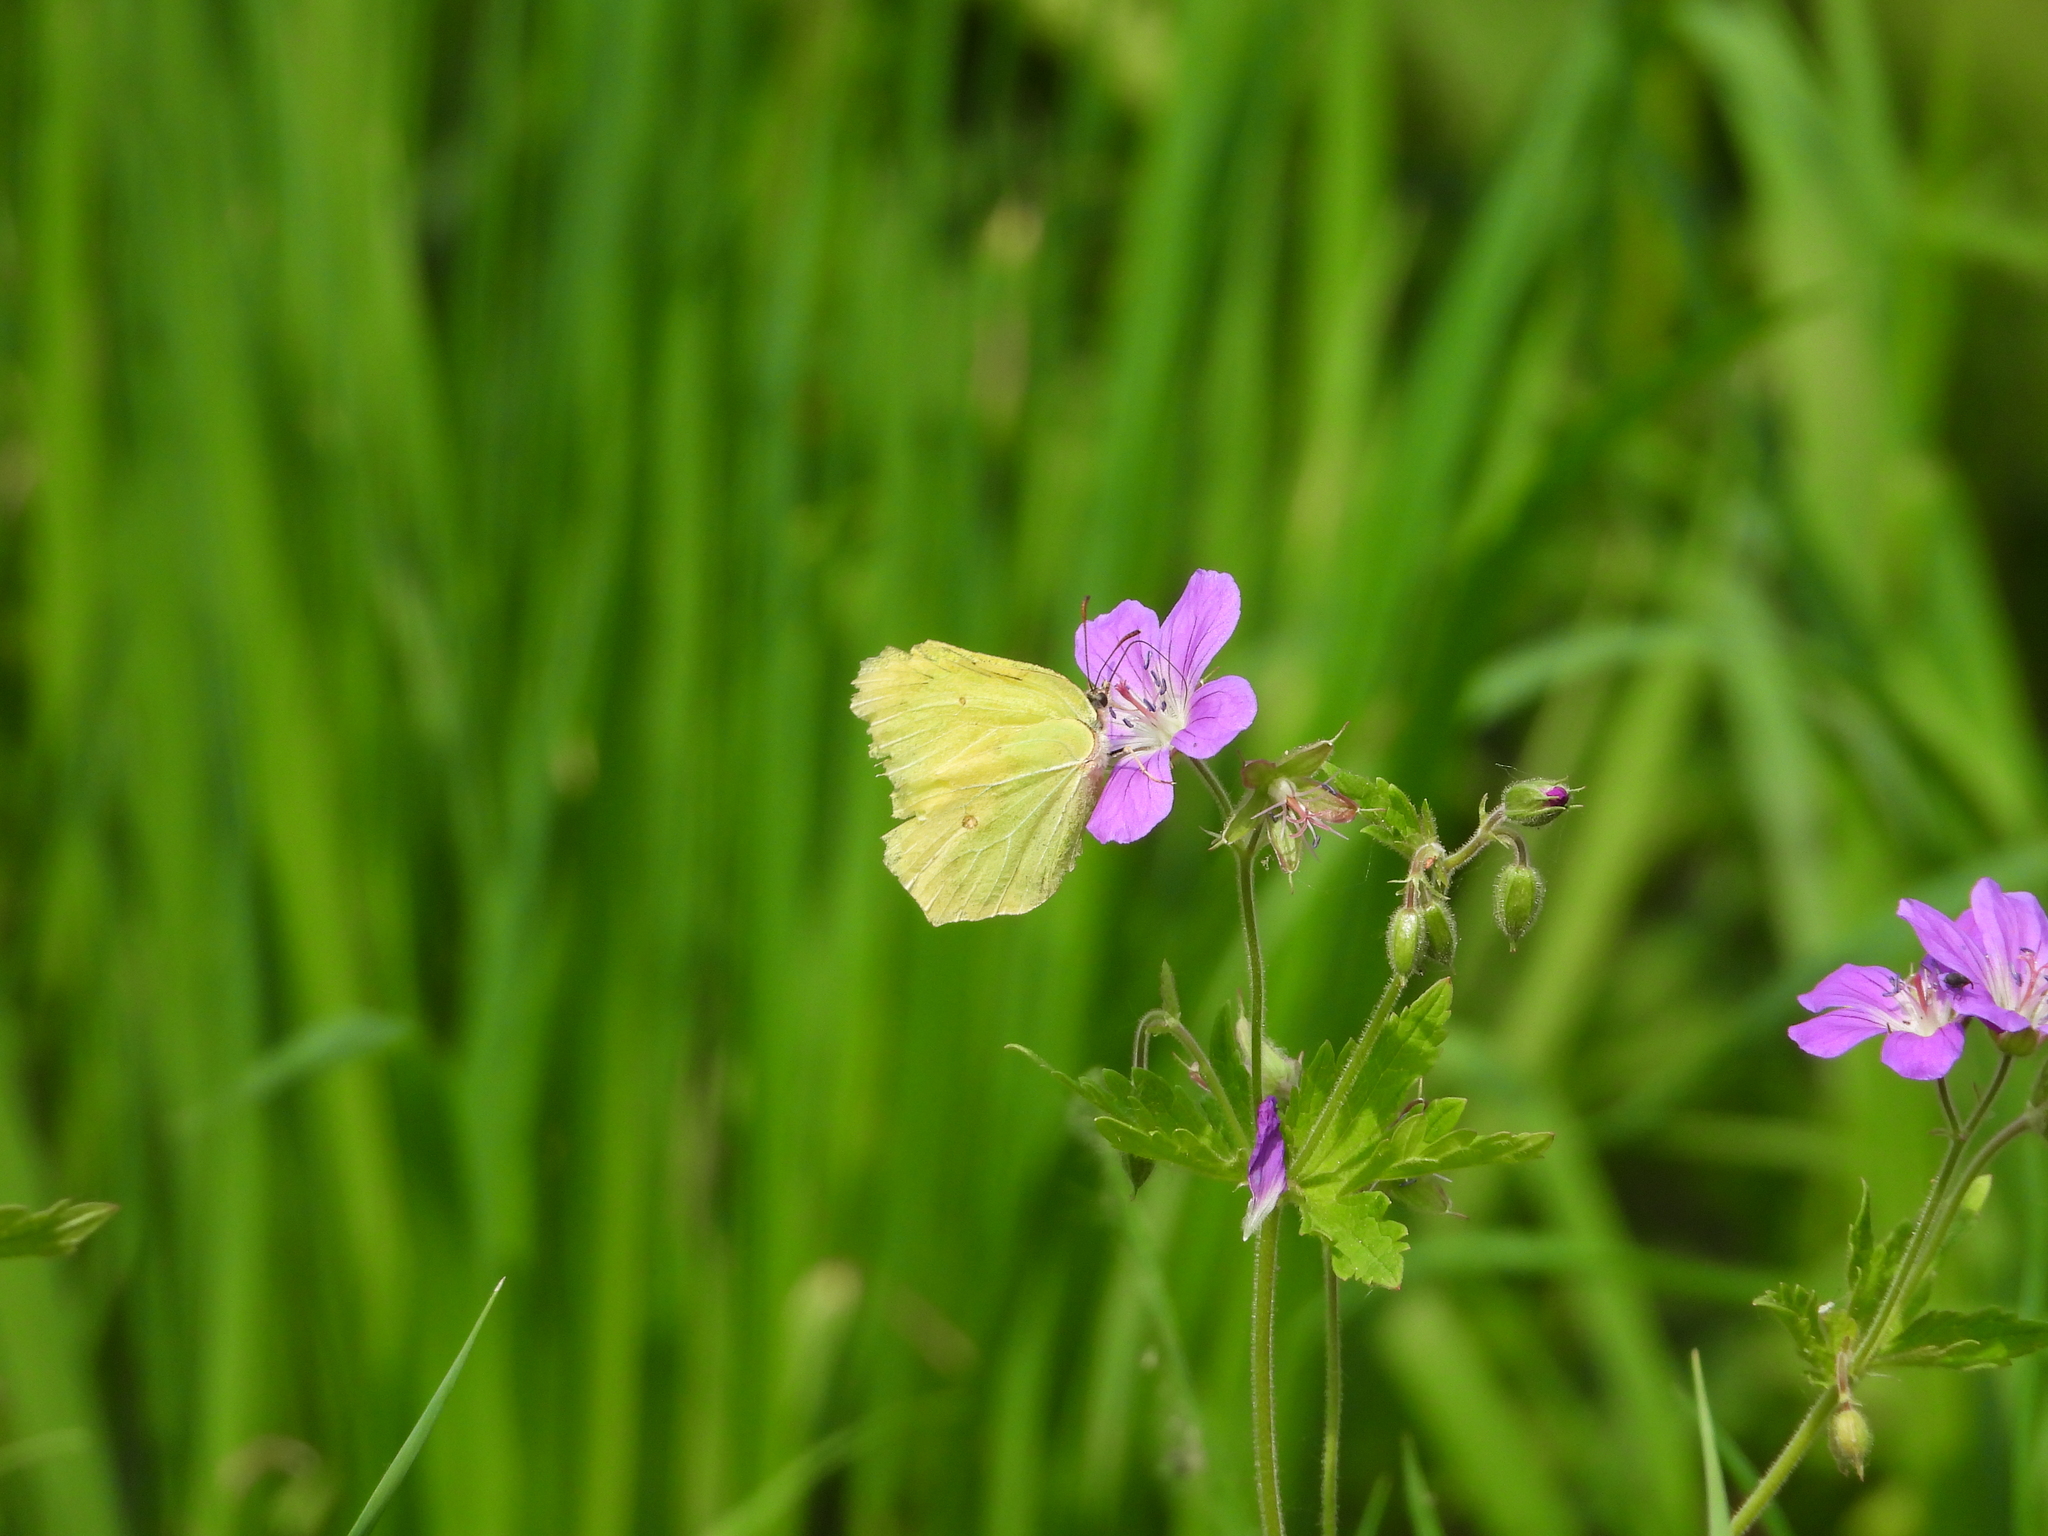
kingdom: Animalia
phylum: Arthropoda
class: Insecta
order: Lepidoptera
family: Pieridae
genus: Gonepteryx
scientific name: Gonepteryx rhamni
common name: Brimstone
